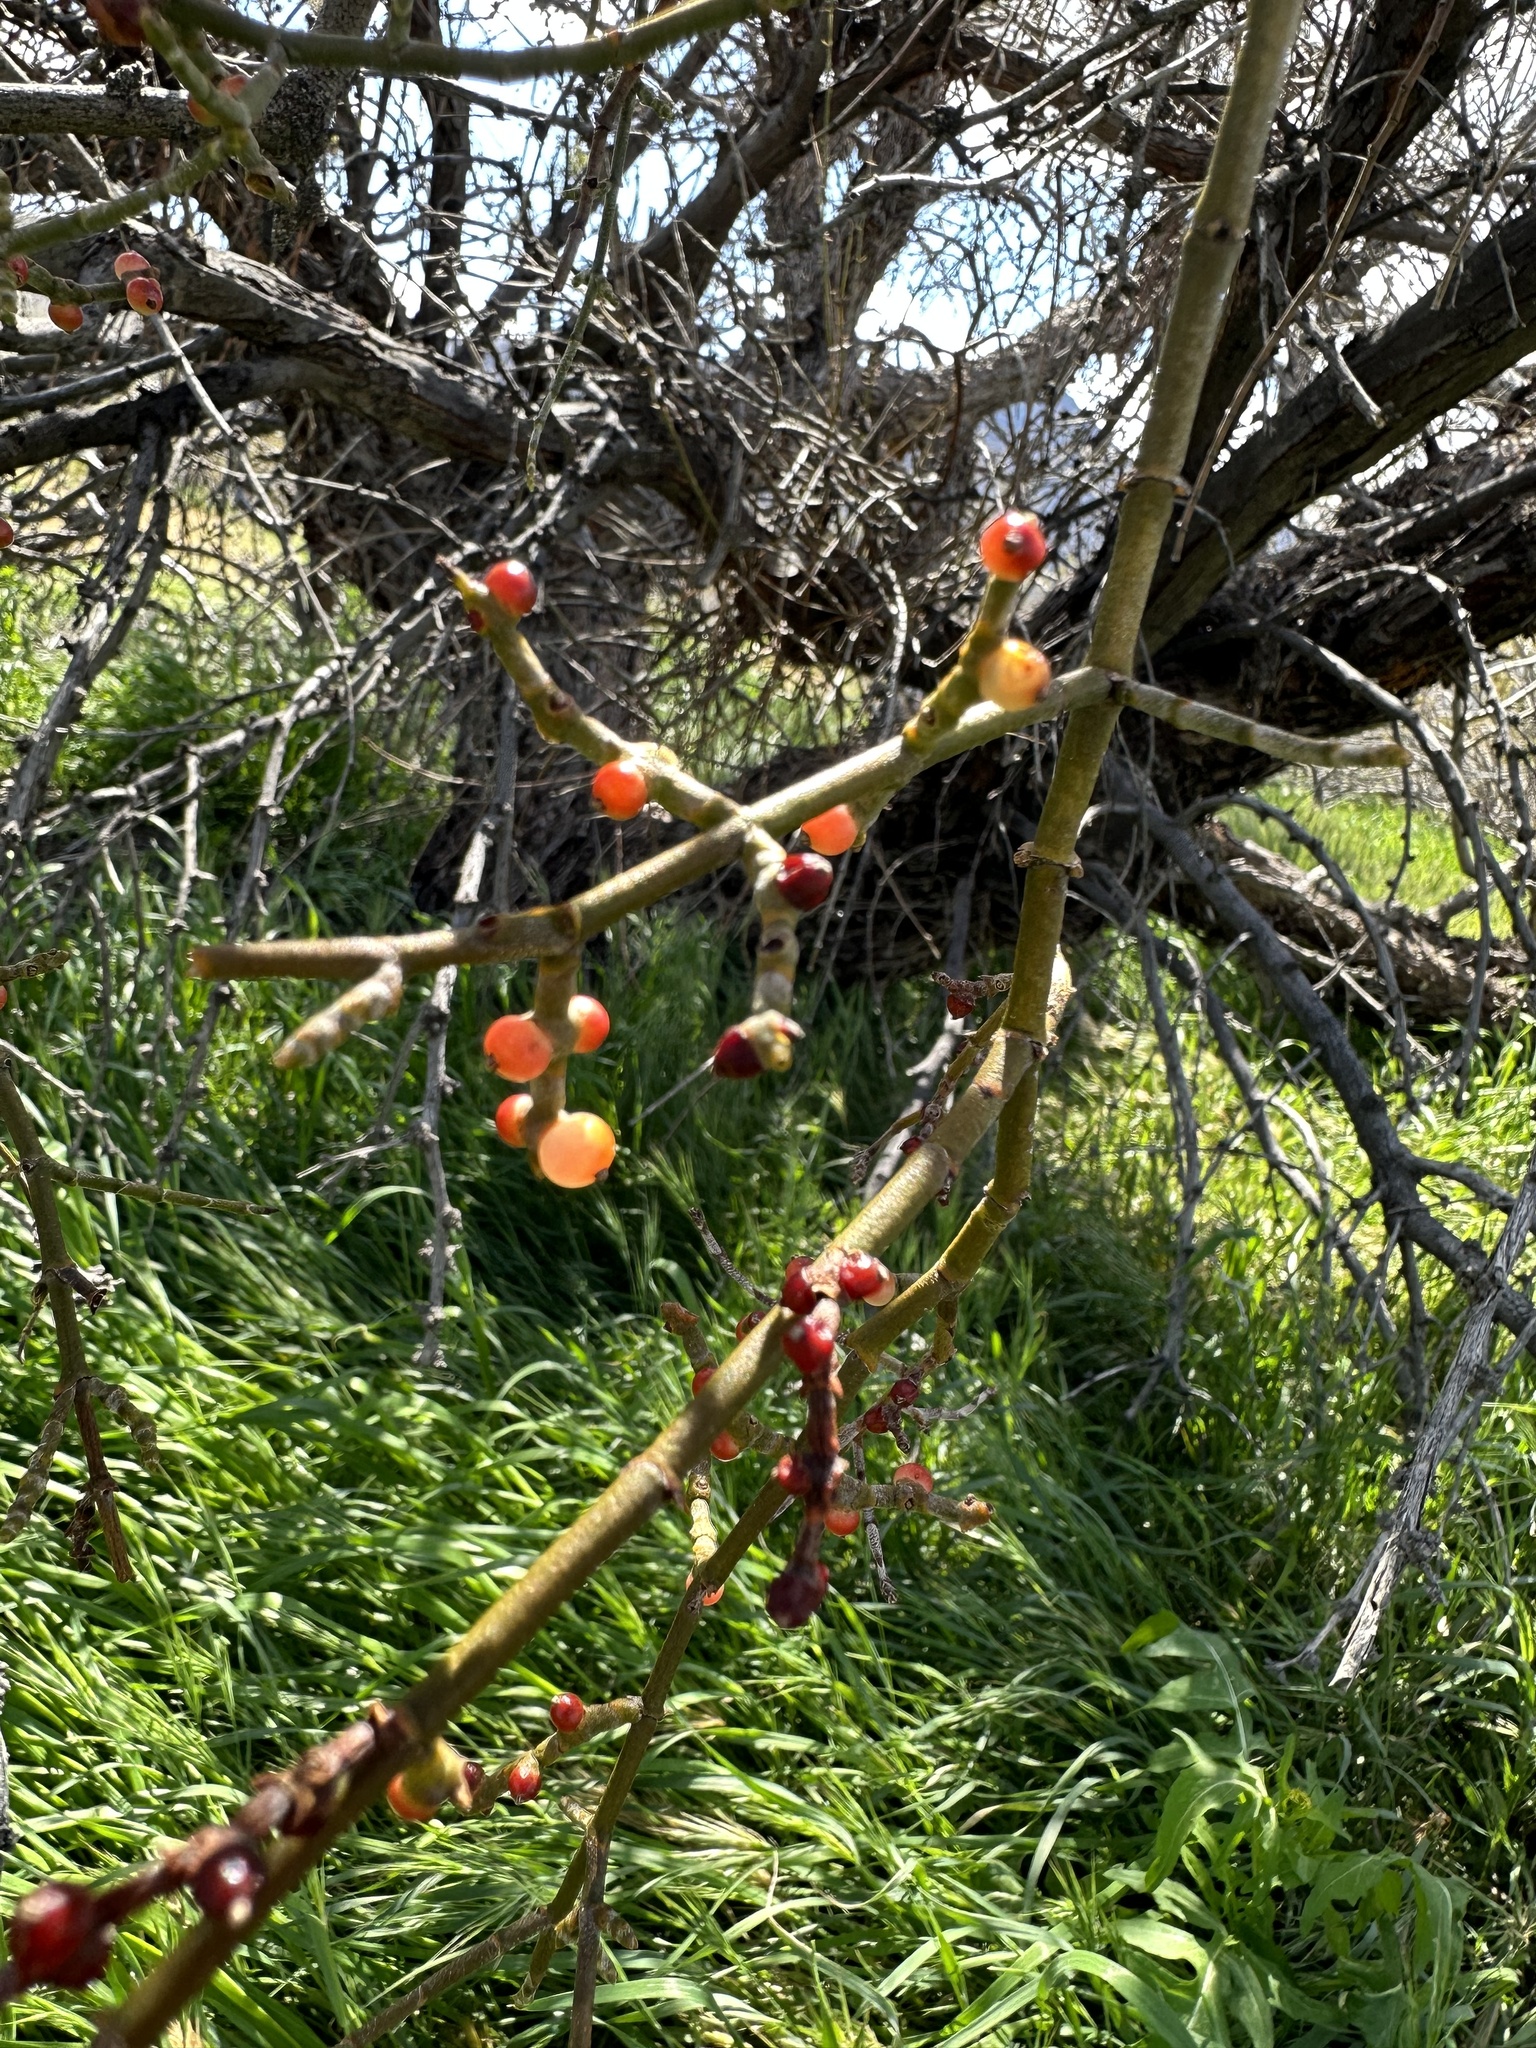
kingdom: Plantae
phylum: Tracheophyta
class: Magnoliopsida
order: Santalales
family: Viscaceae
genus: Phoradendron
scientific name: Phoradendron californicum
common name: Acacia mistletoe
